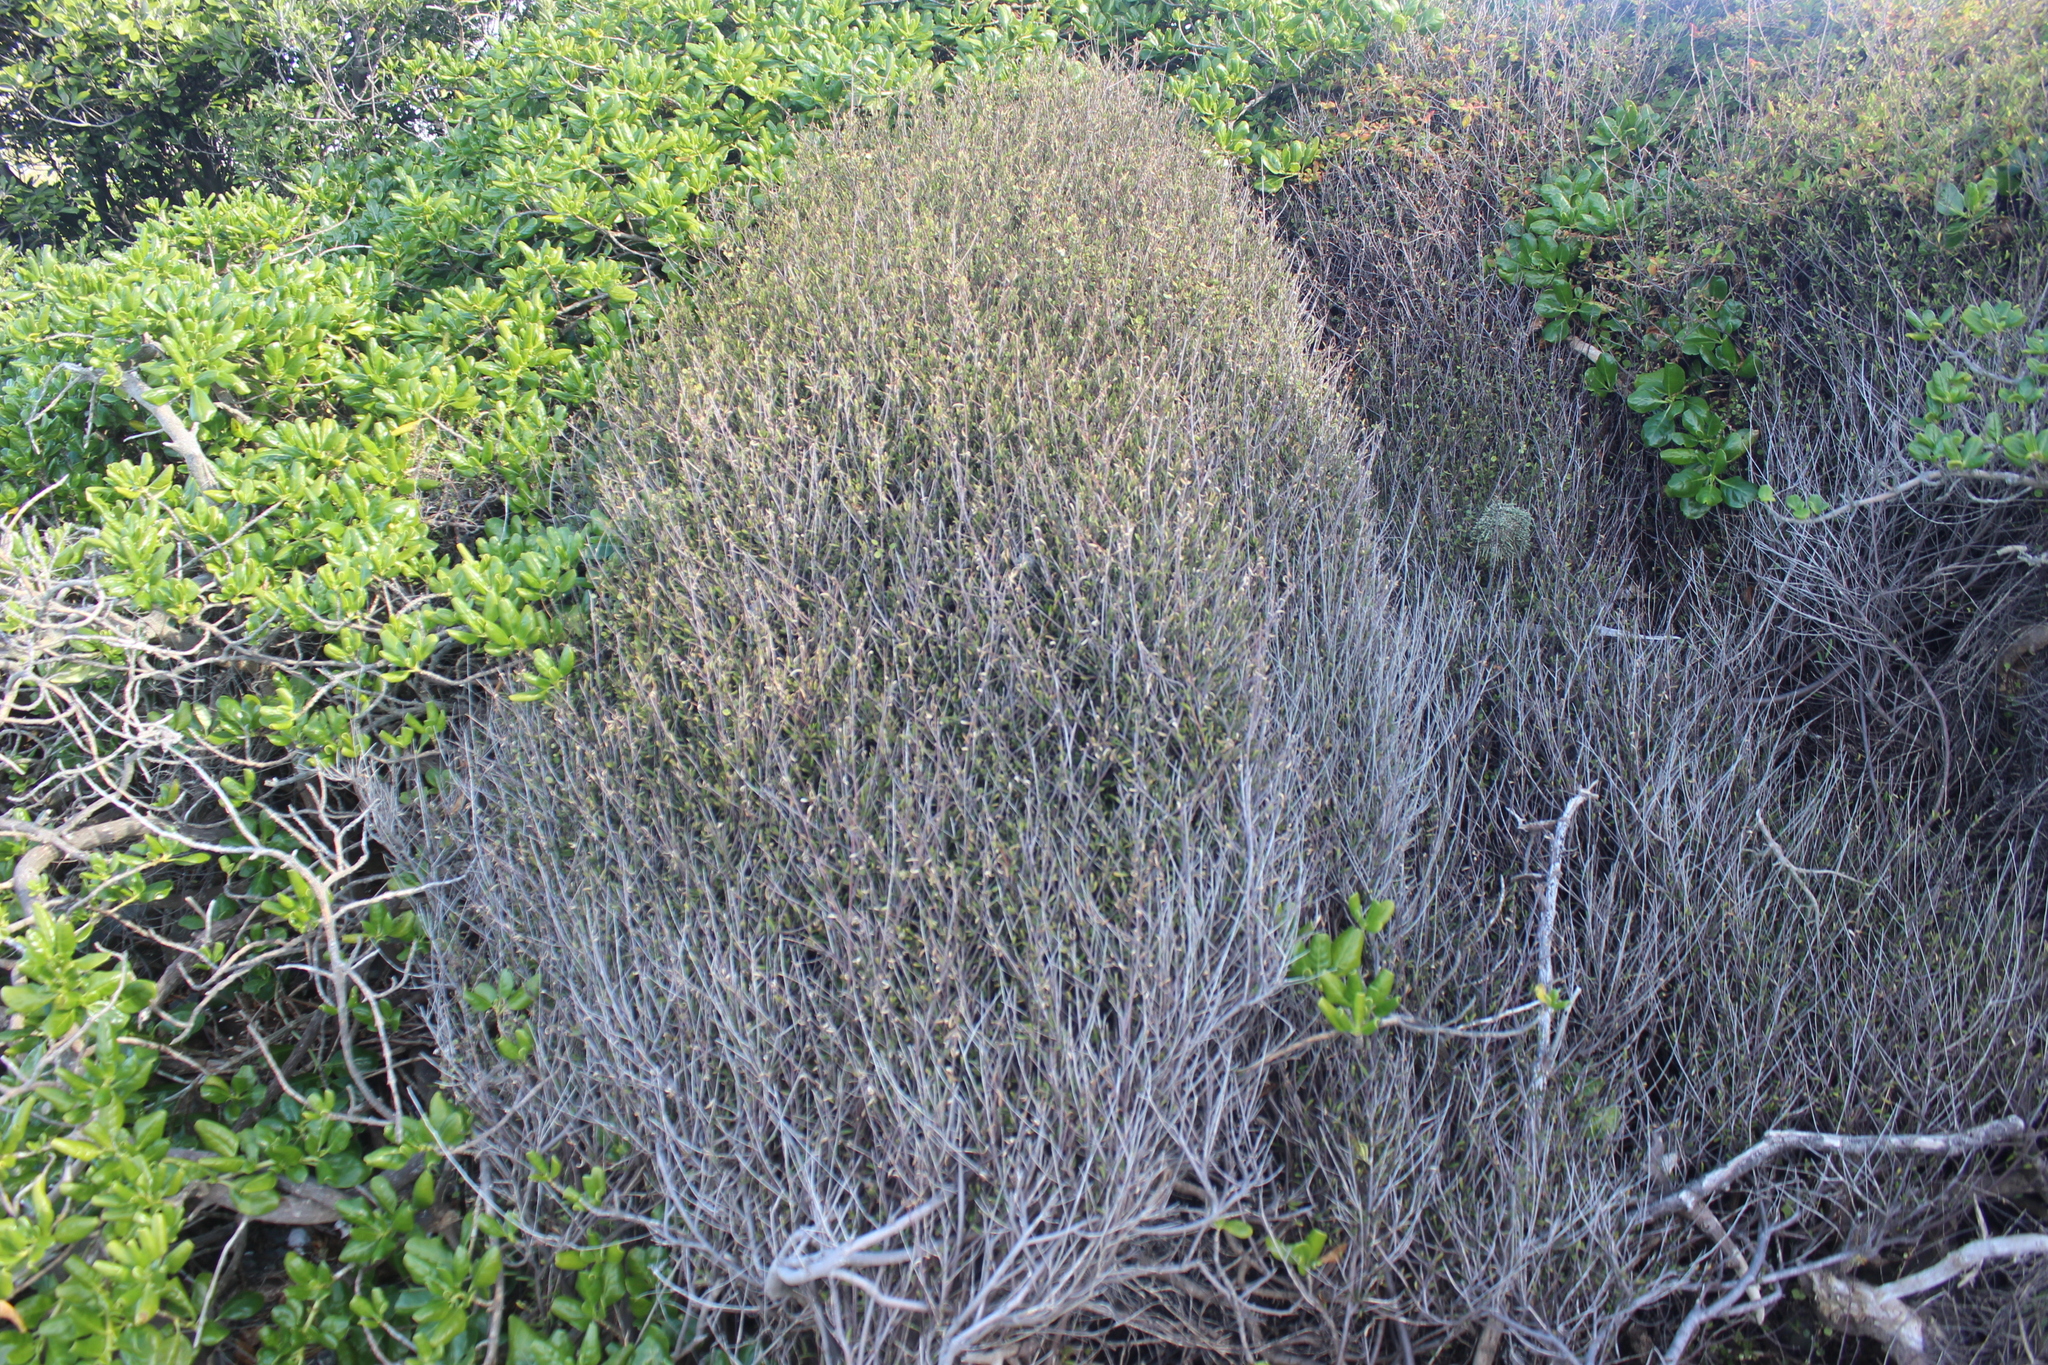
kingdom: Plantae
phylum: Tracheophyta
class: Magnoliopsida
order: Malvales
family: Malvaceae
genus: Plagianthus
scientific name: Plagianthus divaricatus
